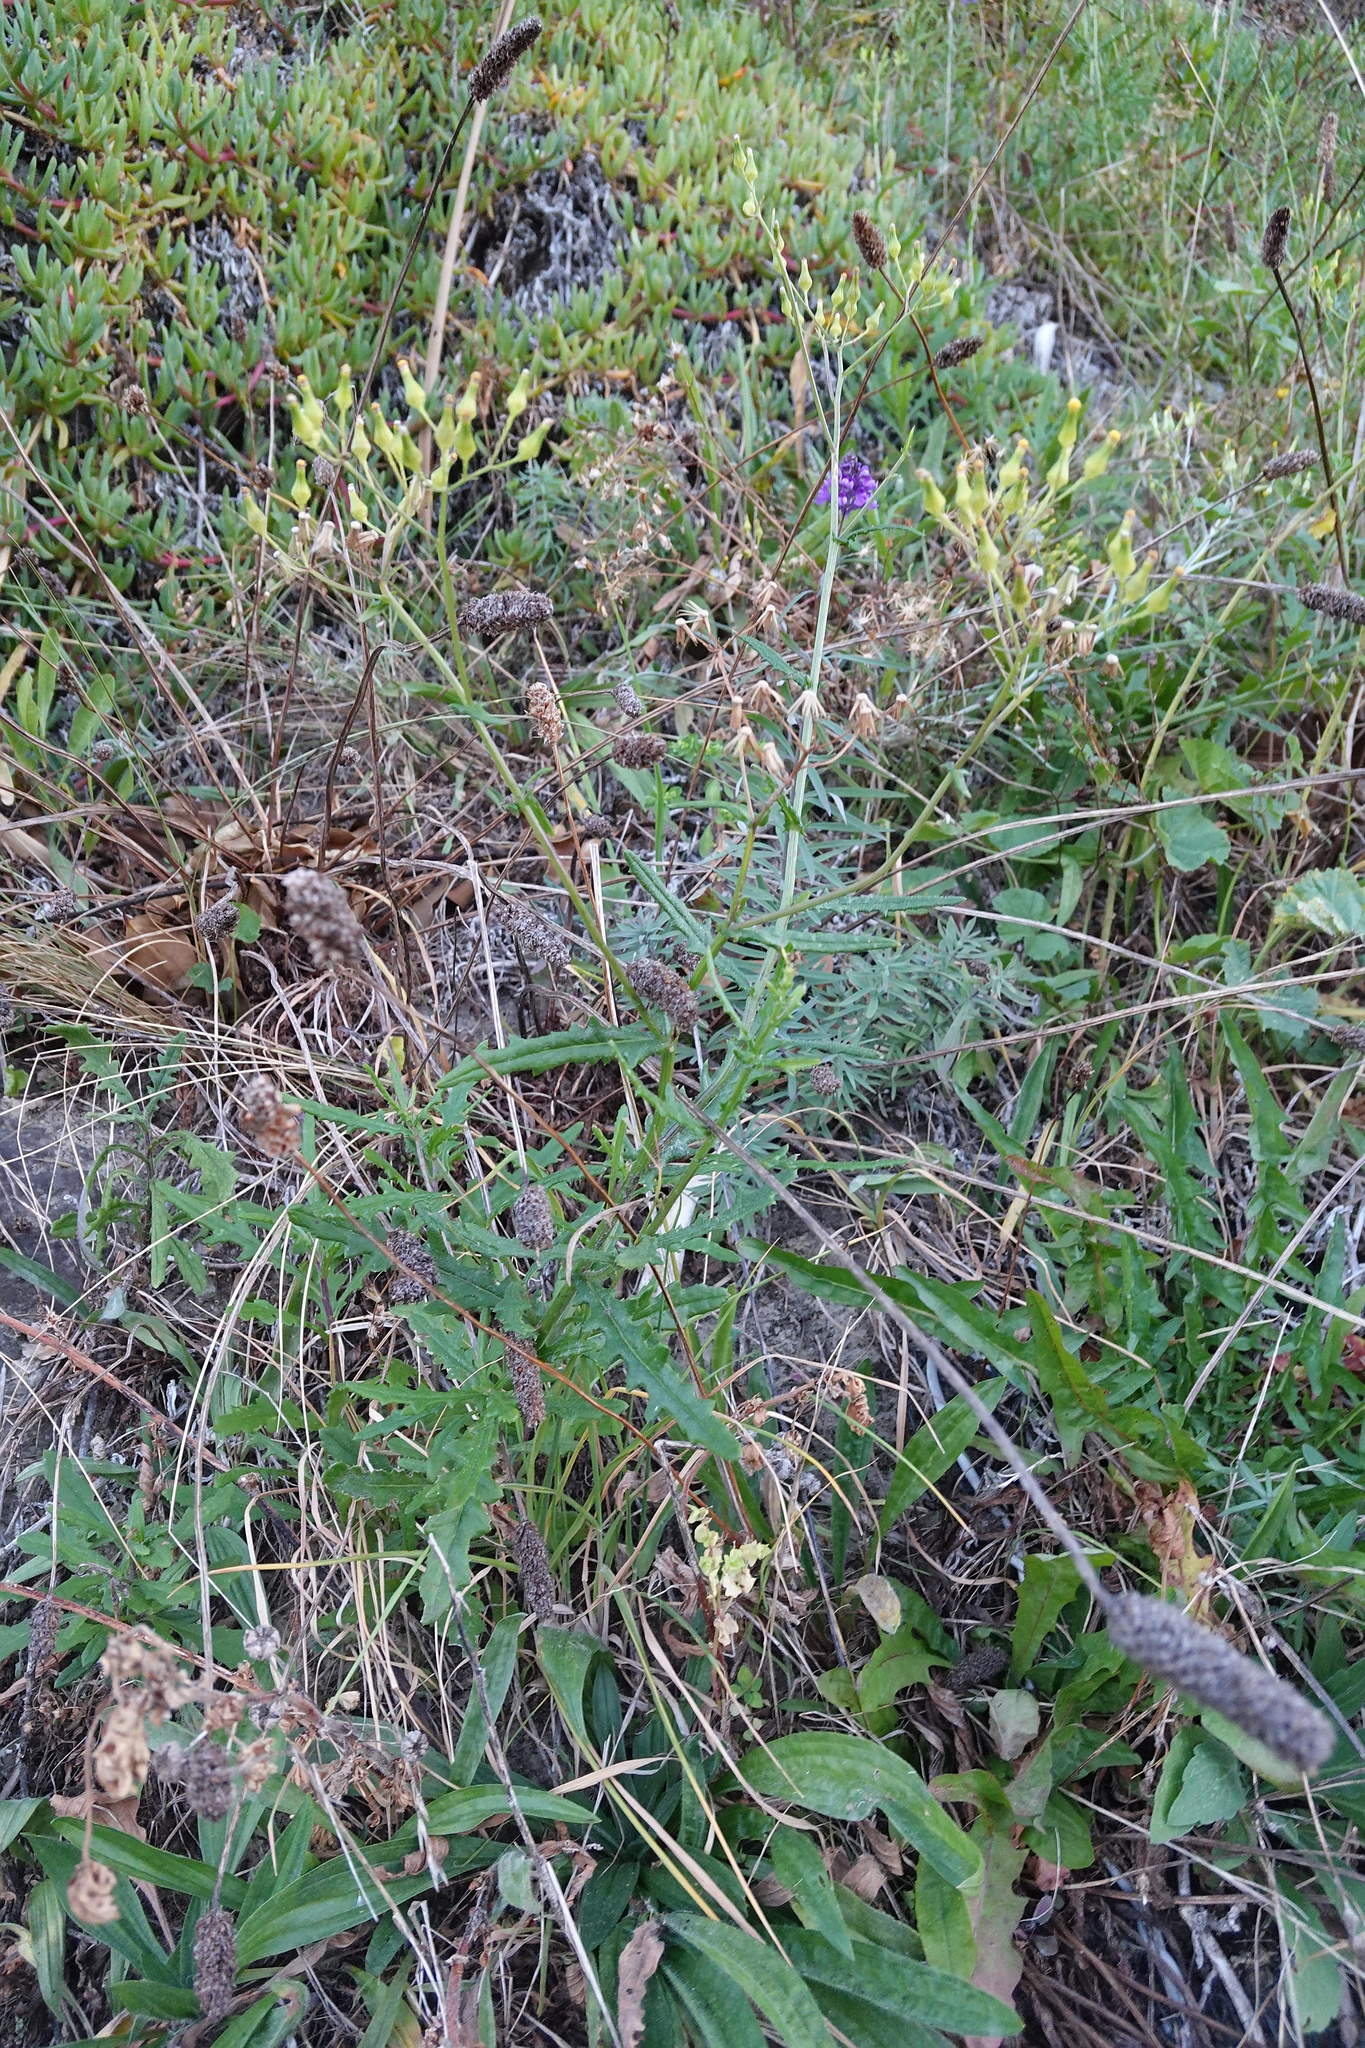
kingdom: Plantae
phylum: Tracheophyta
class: Magnoliopsida
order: Asterales
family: Asteraceae
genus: Senecio
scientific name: Senecio hispidulus
